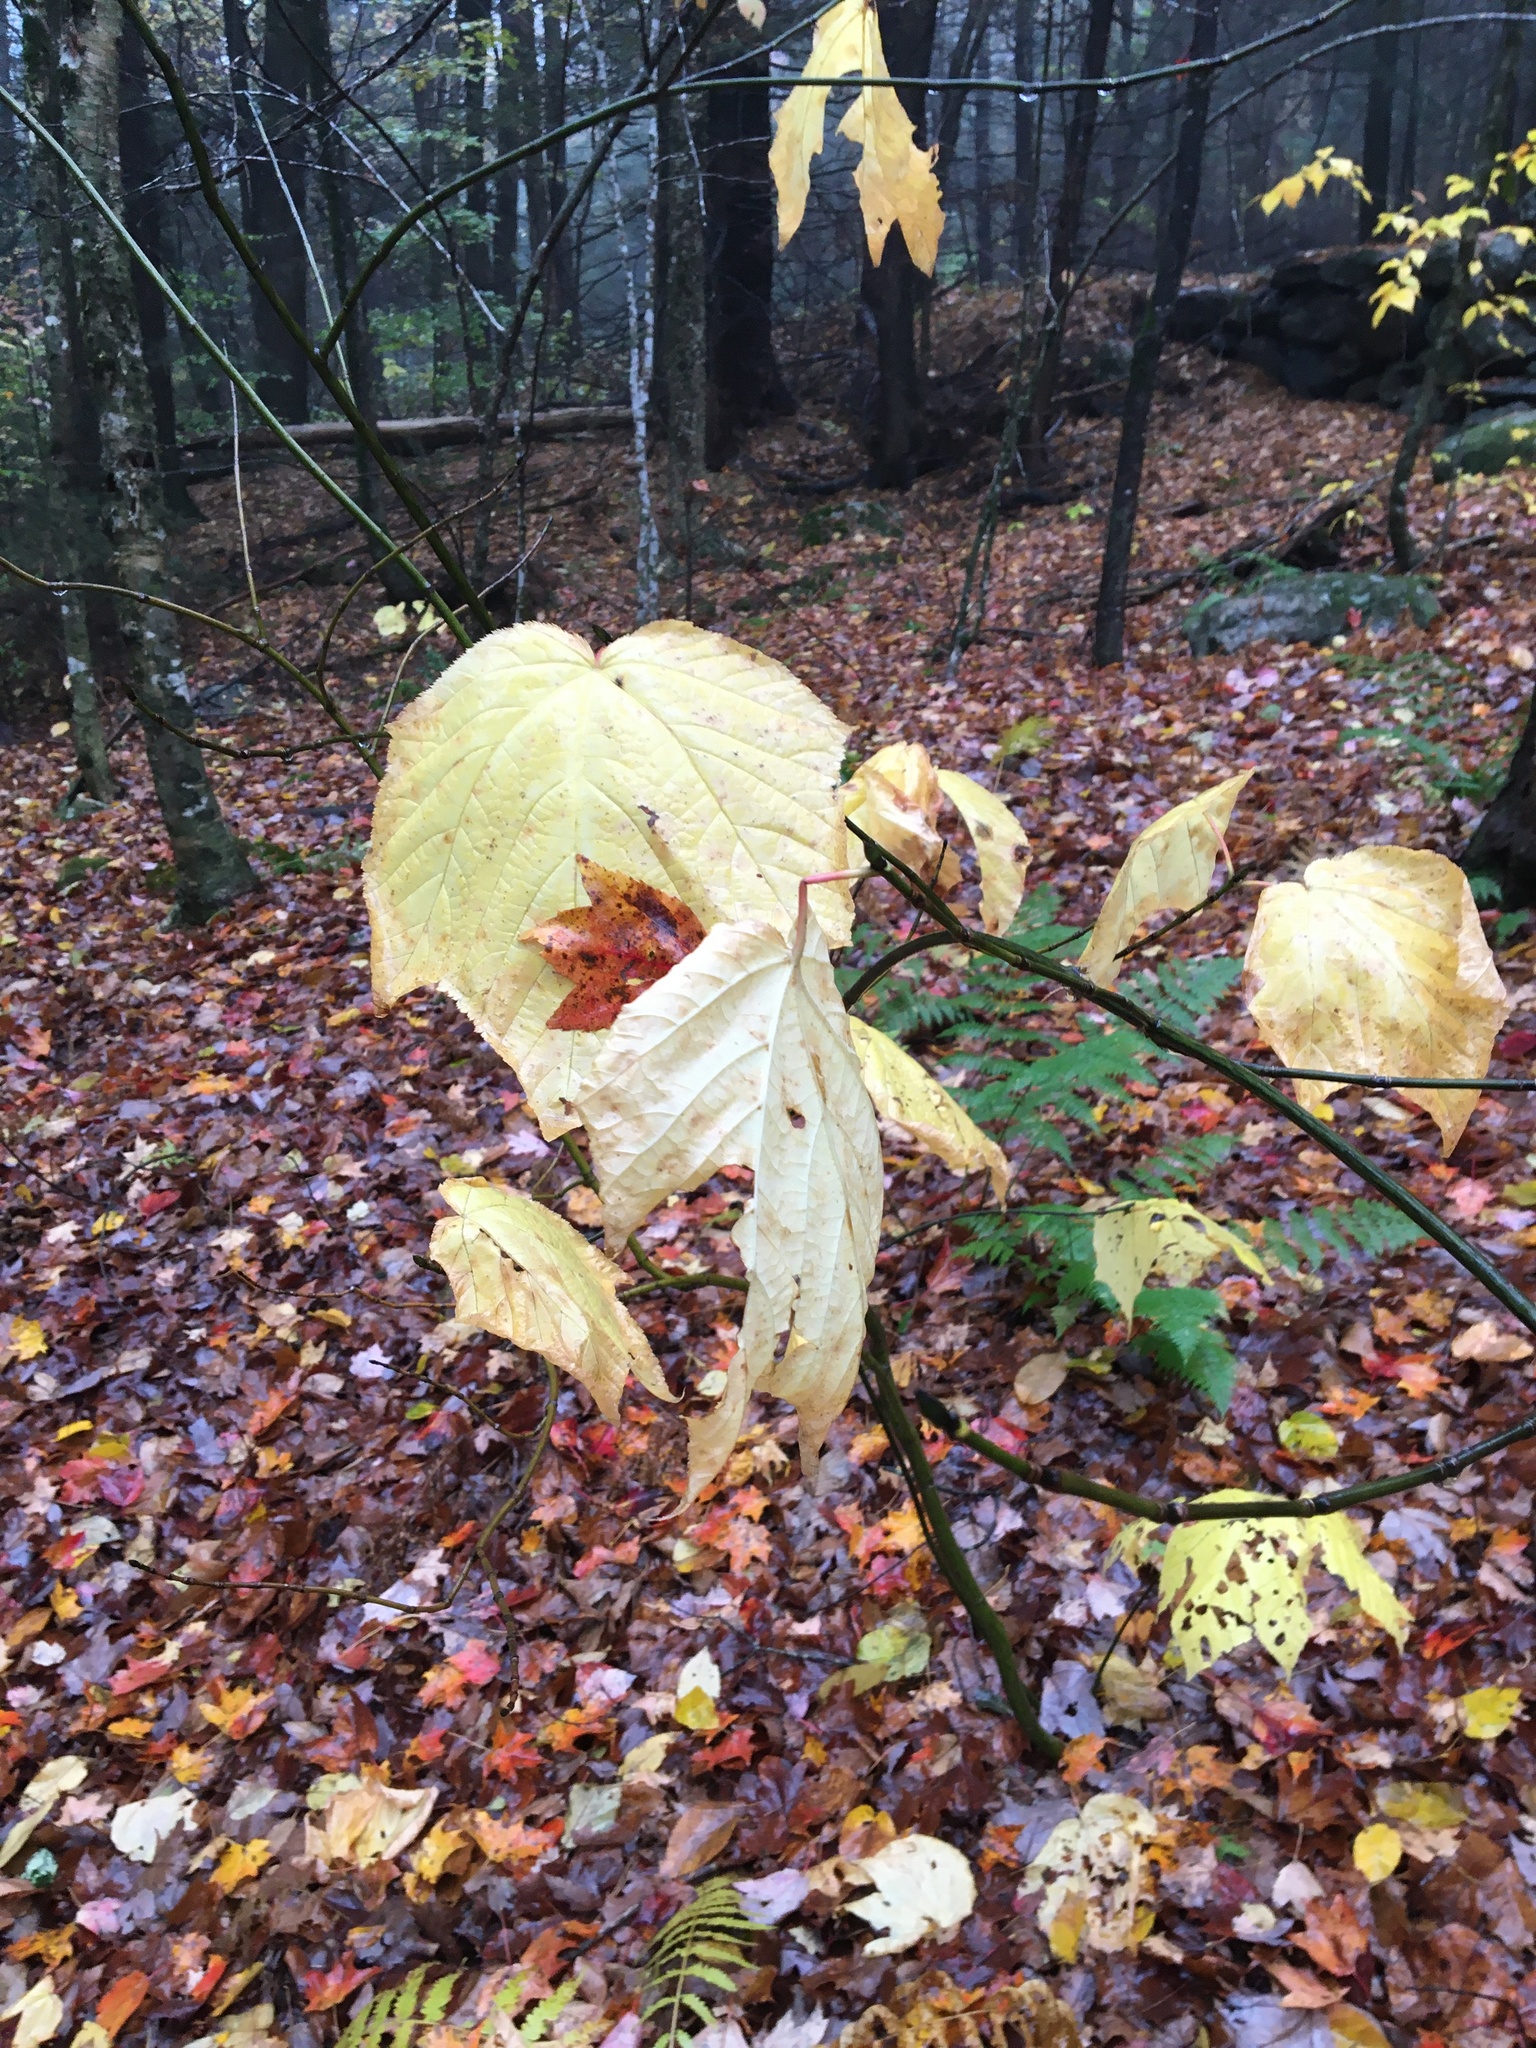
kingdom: Plantae
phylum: Tracheophyta
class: Magnoliopsida
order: Sapindales
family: Sapindaceae
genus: Acer
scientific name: Acer pensylvanicum
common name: Moosewood
